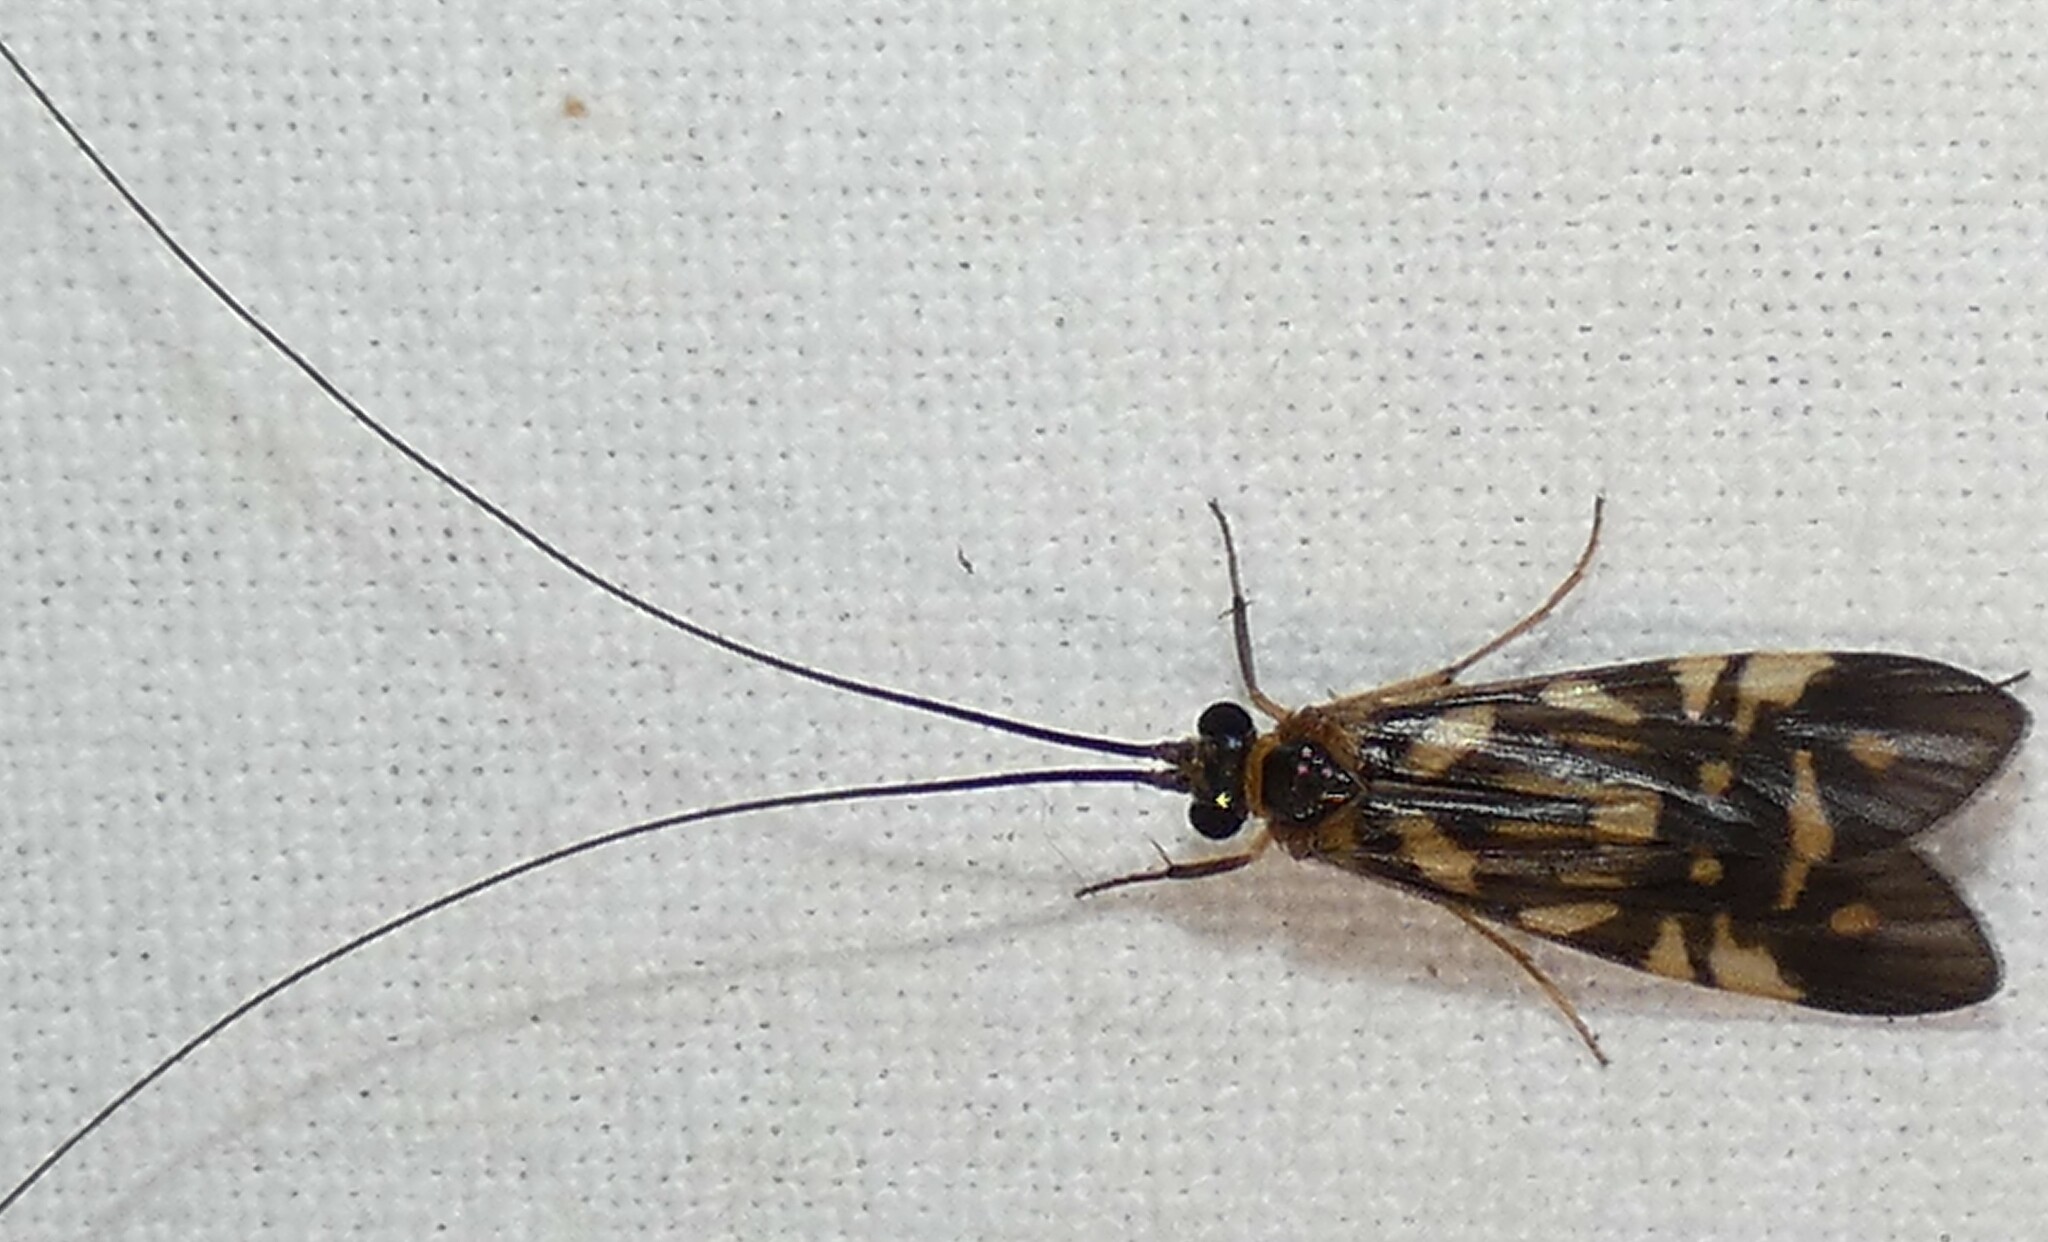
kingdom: Animalia
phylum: Arthropoda
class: Insecta
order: Trichoptera
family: Hydropsychidae
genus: Macrostemum
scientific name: Macrostemum carolina
